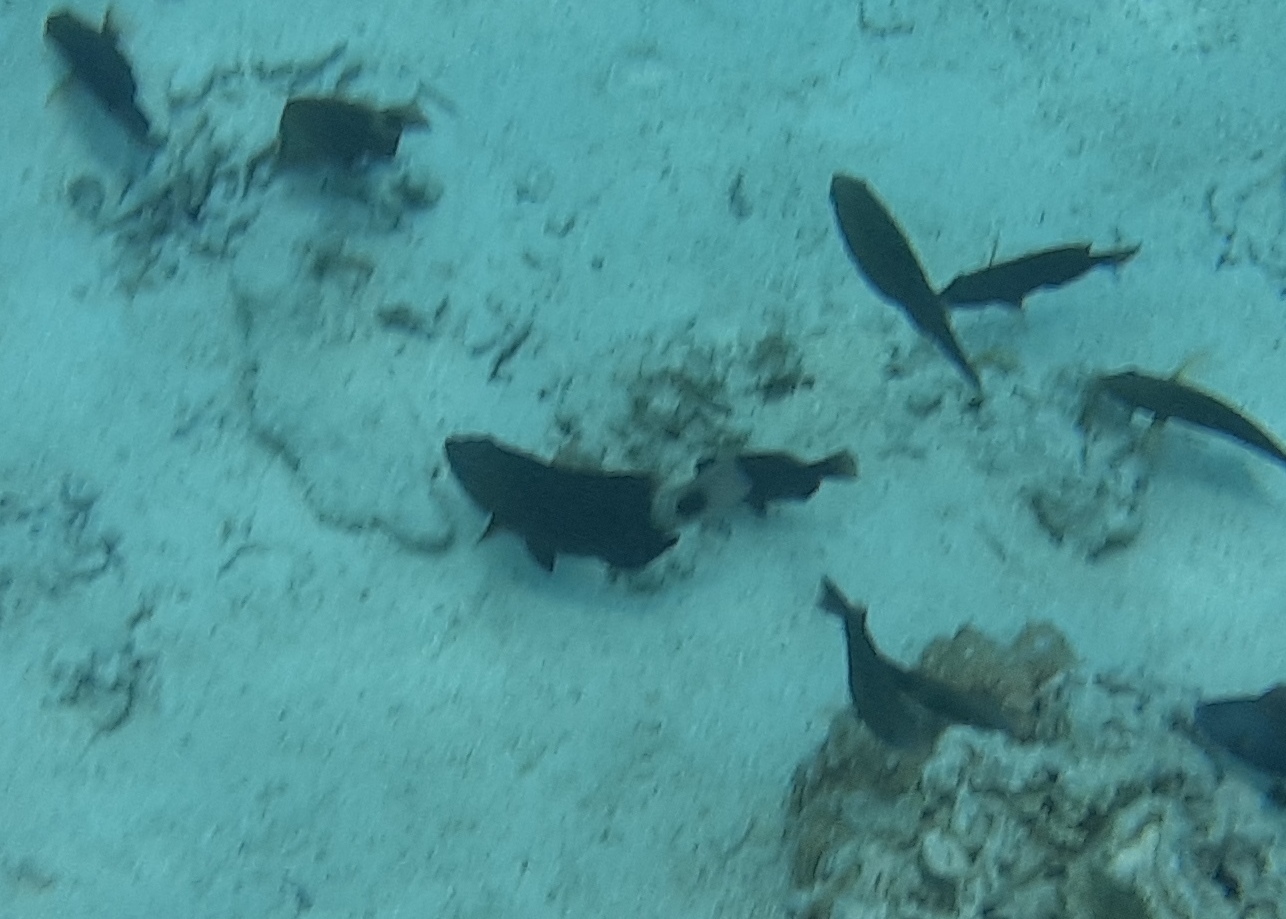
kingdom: Animalia
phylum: Chordata
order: Perciformes
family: Scaridae
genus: Chlorurus
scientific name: Chlorurus spilurus
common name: Bullethead parrotfish
